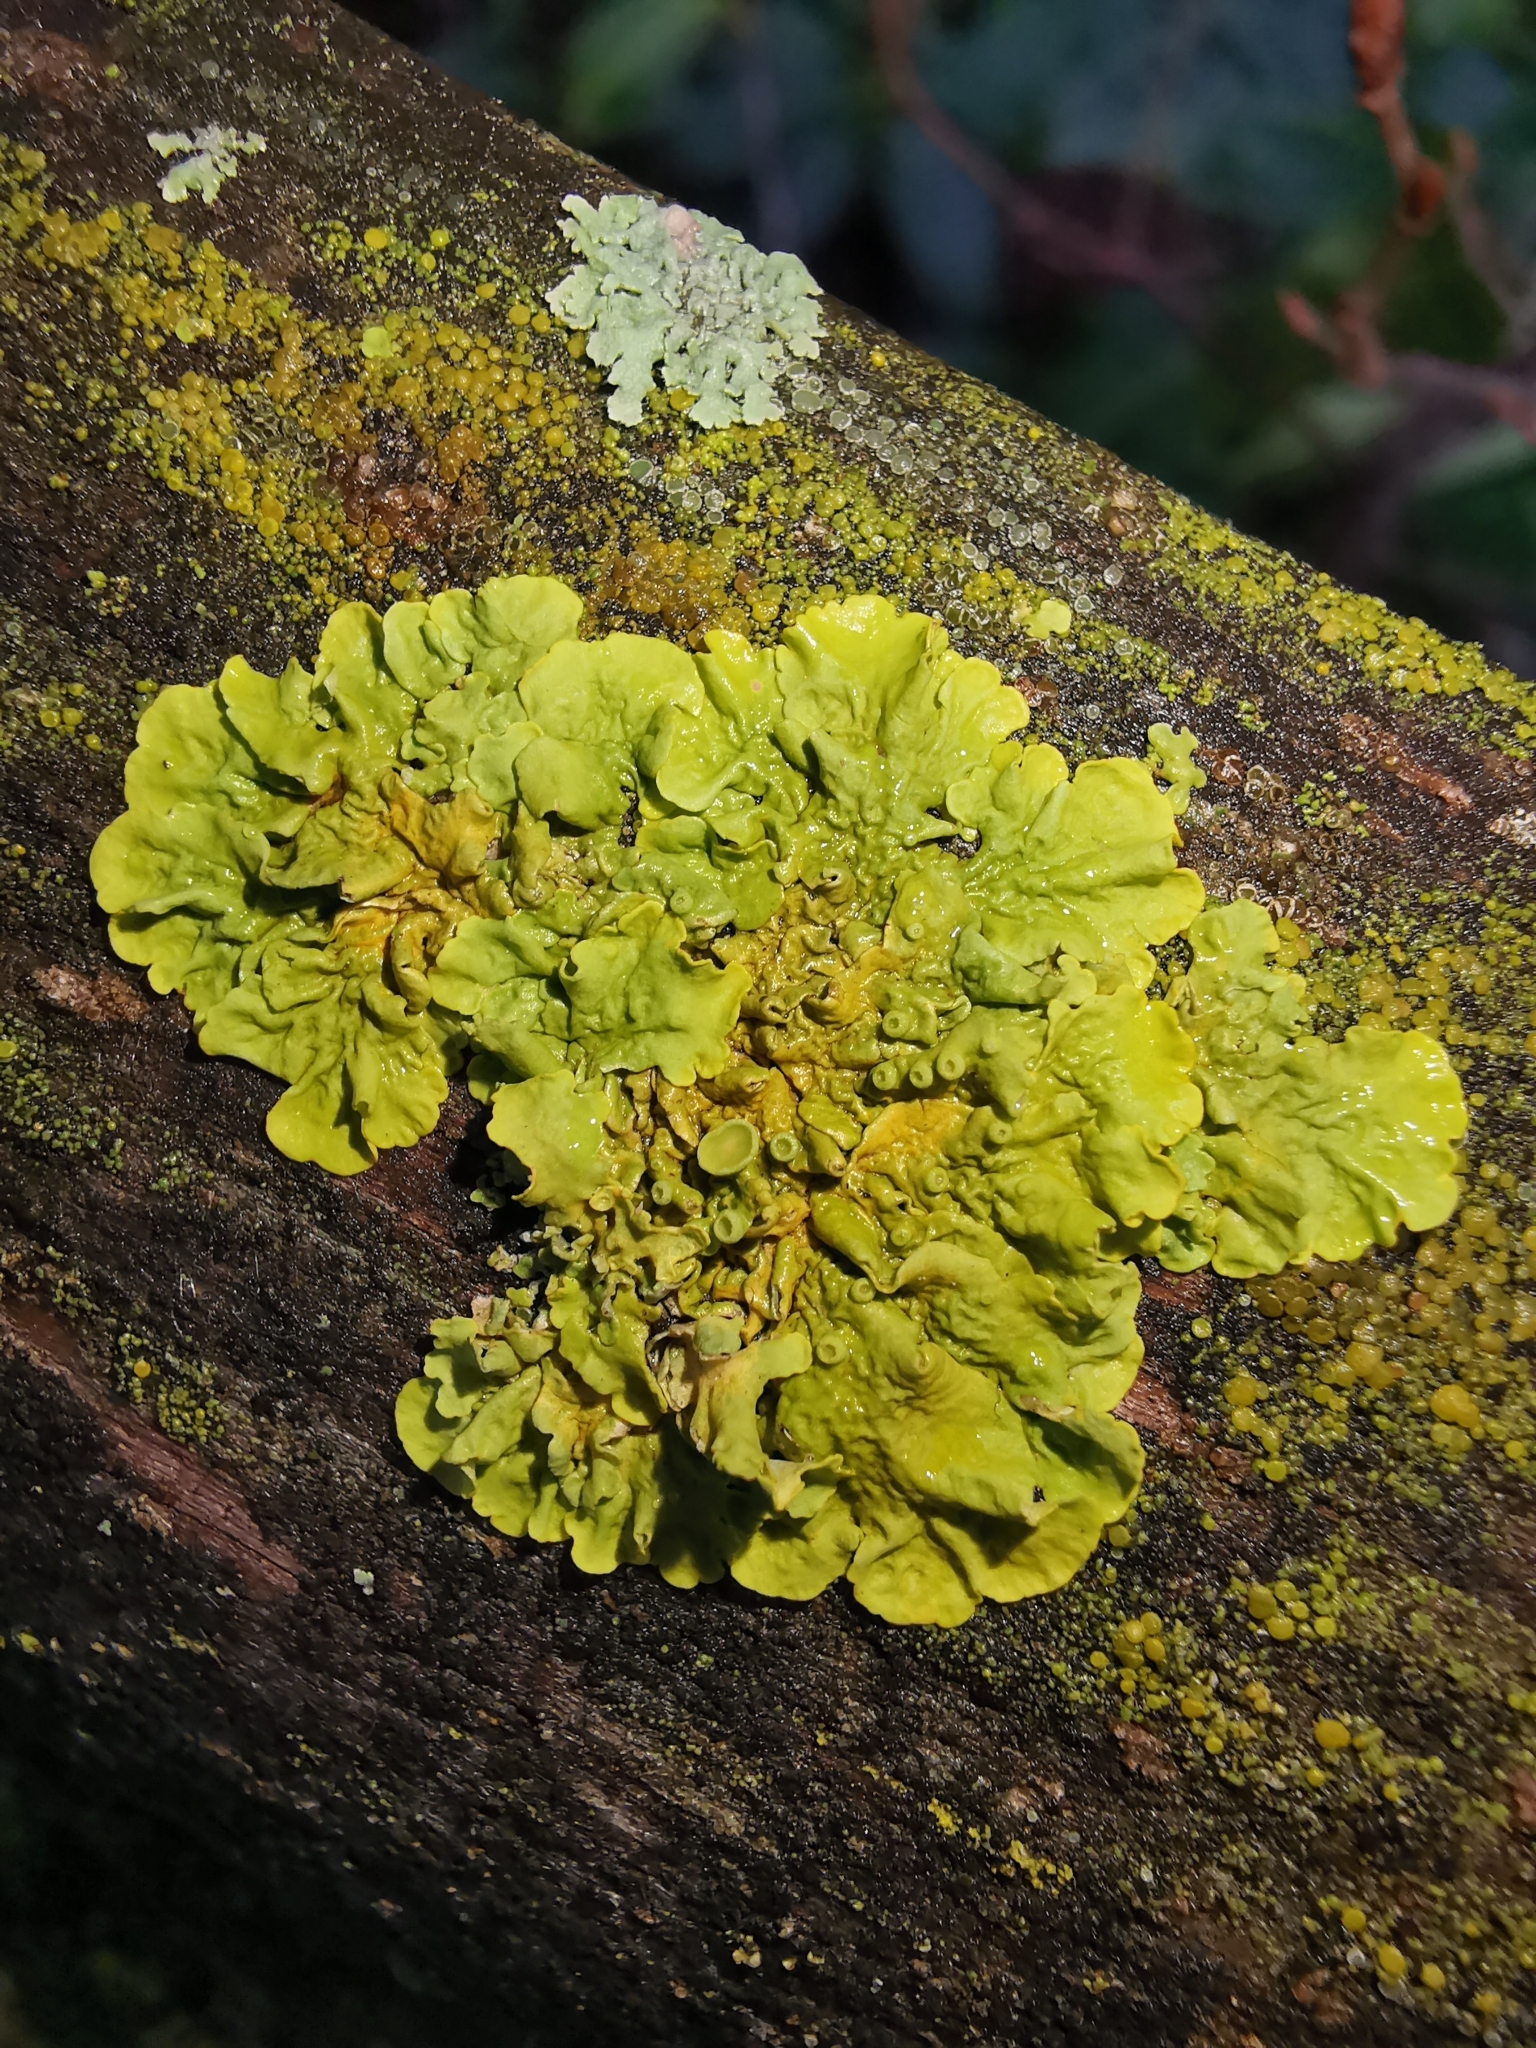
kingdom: Fungi
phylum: Ascomycota
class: Lecanoromycetes
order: Teloschistales
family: Teloschistaceae
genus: Xanthoria
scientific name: Xanthoria parietina
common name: Common orange lichen
